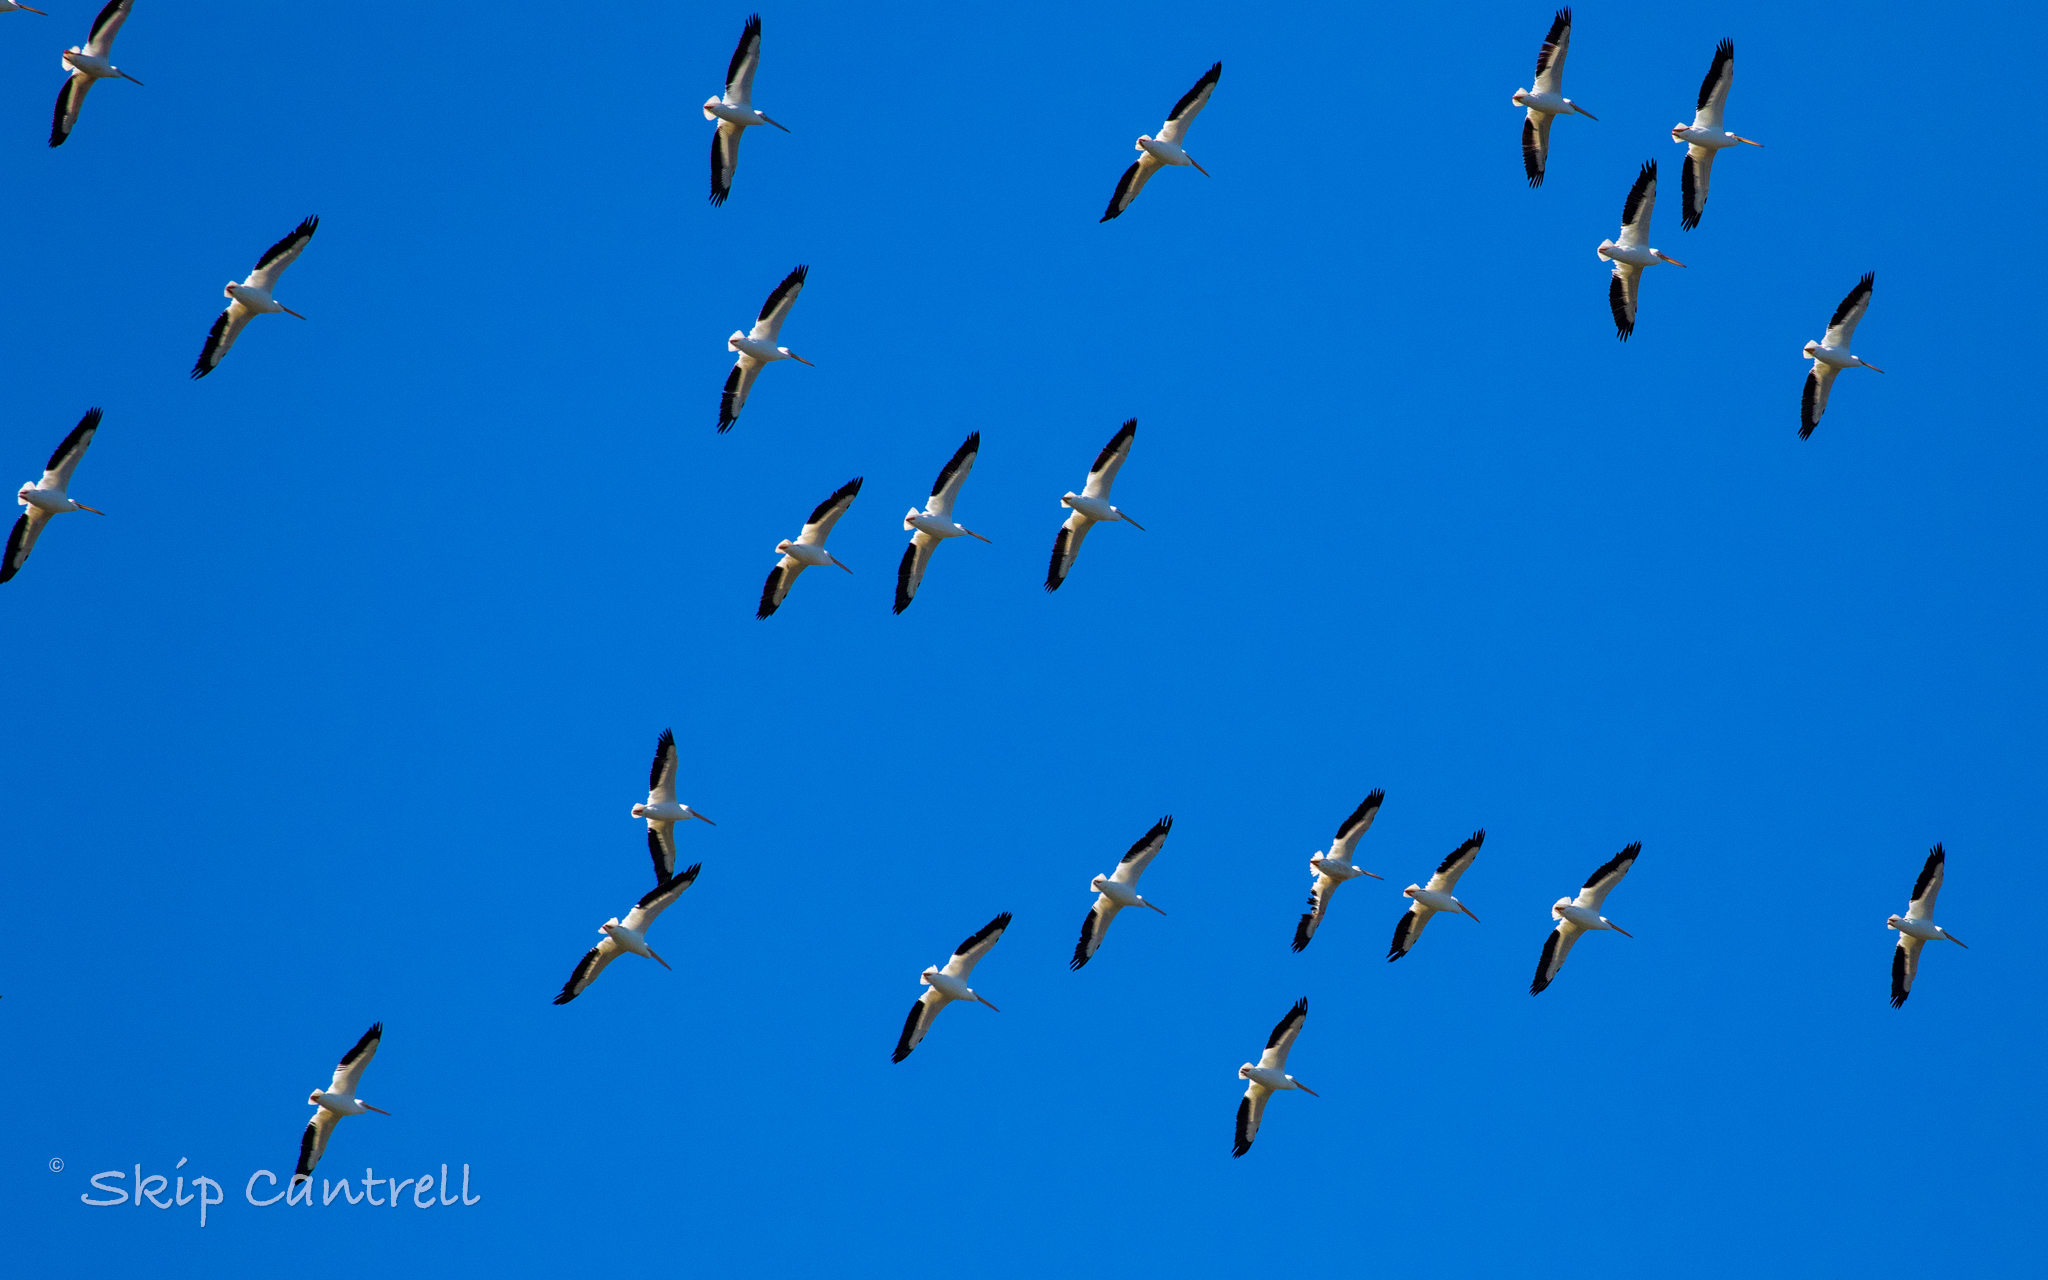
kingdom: Animalia
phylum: Chordata
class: Aves
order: Pelecaniformes
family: Pelecanidae
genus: Pelecanus
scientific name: Pelecanus erythrorhynchos
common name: American white pelican
